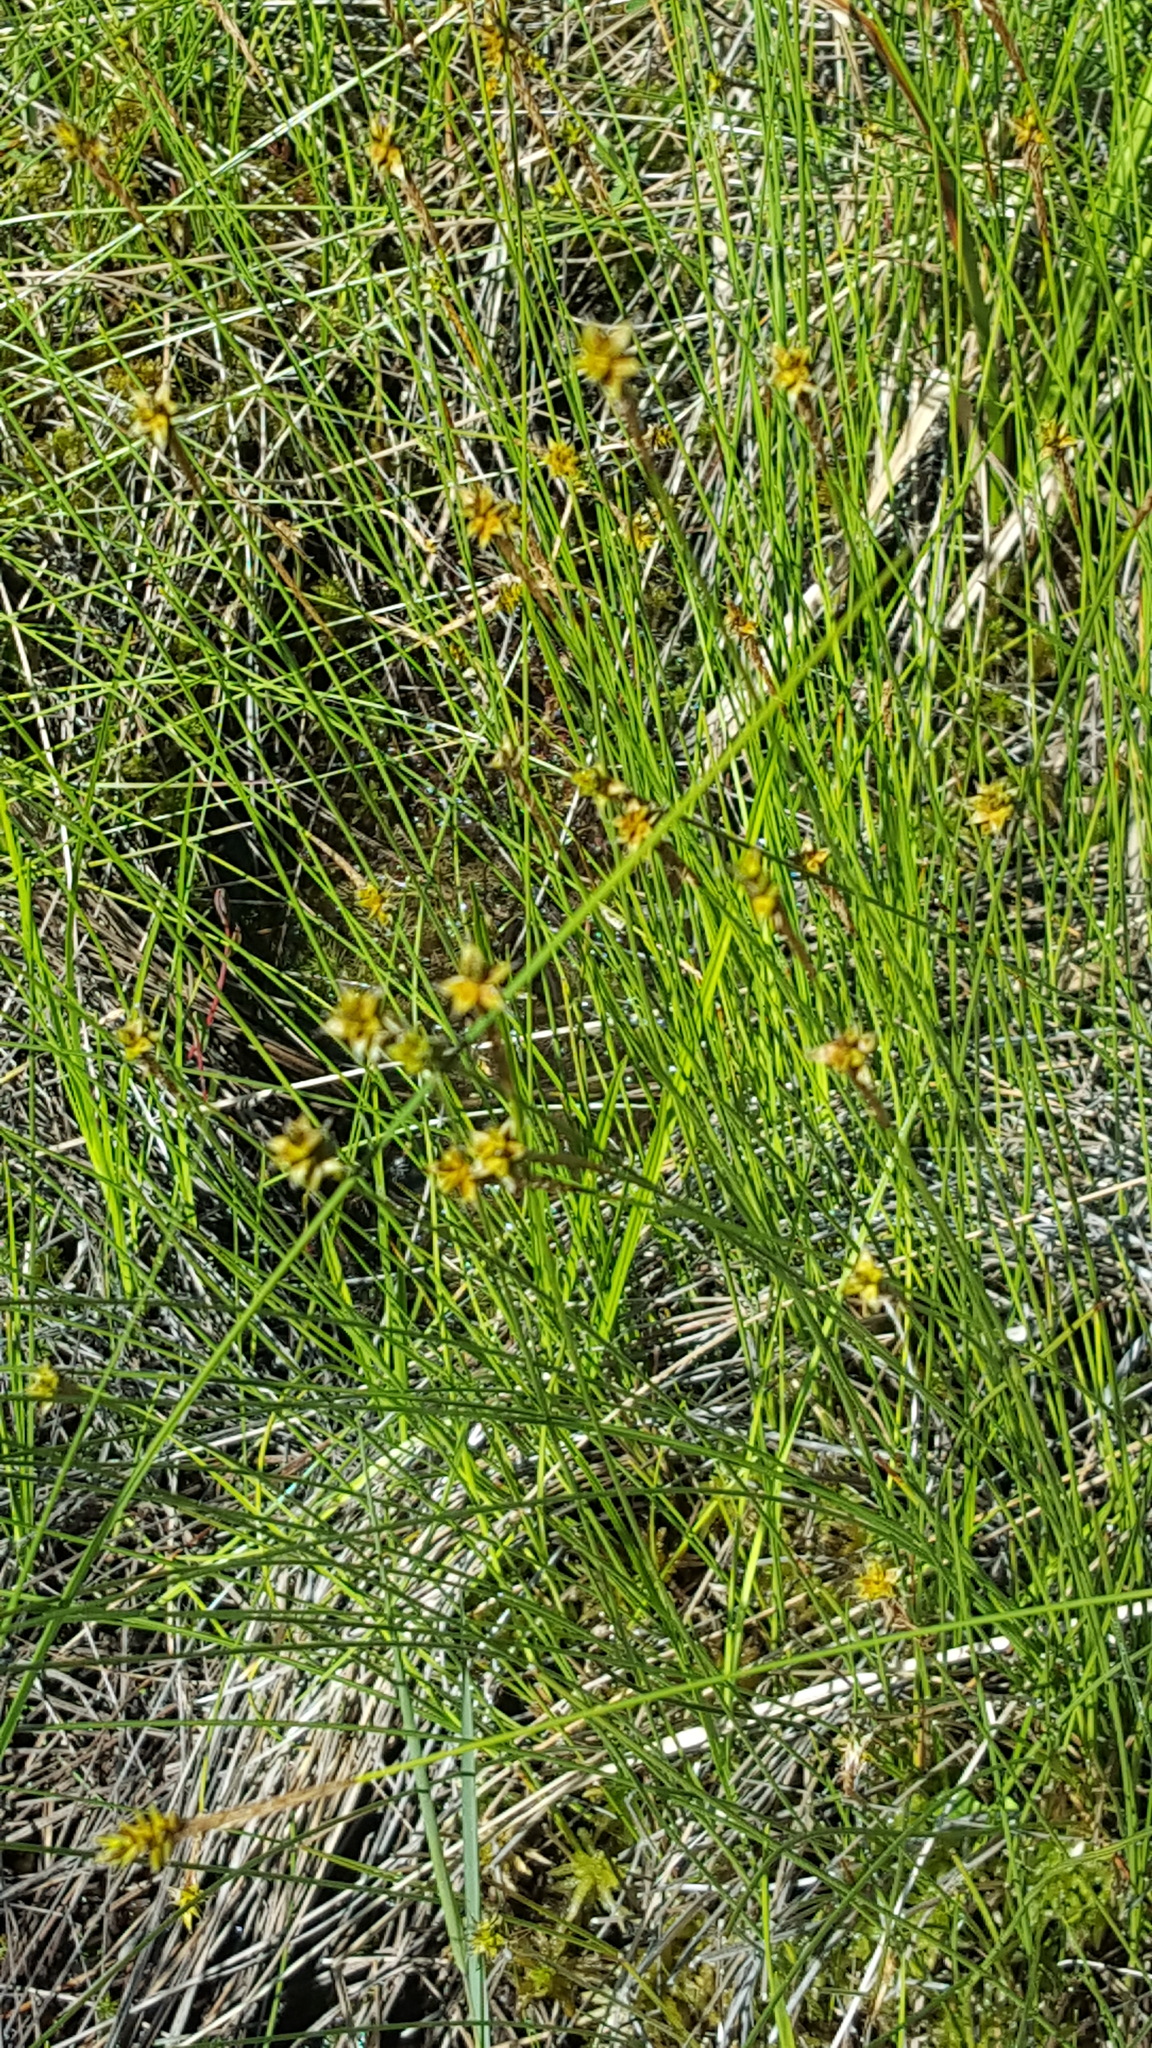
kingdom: Plantae
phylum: Tracheophyta
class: Liliopsida
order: Poales
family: Cyperaceae
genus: Carex
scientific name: Carex exilis
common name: Coastal sedge
